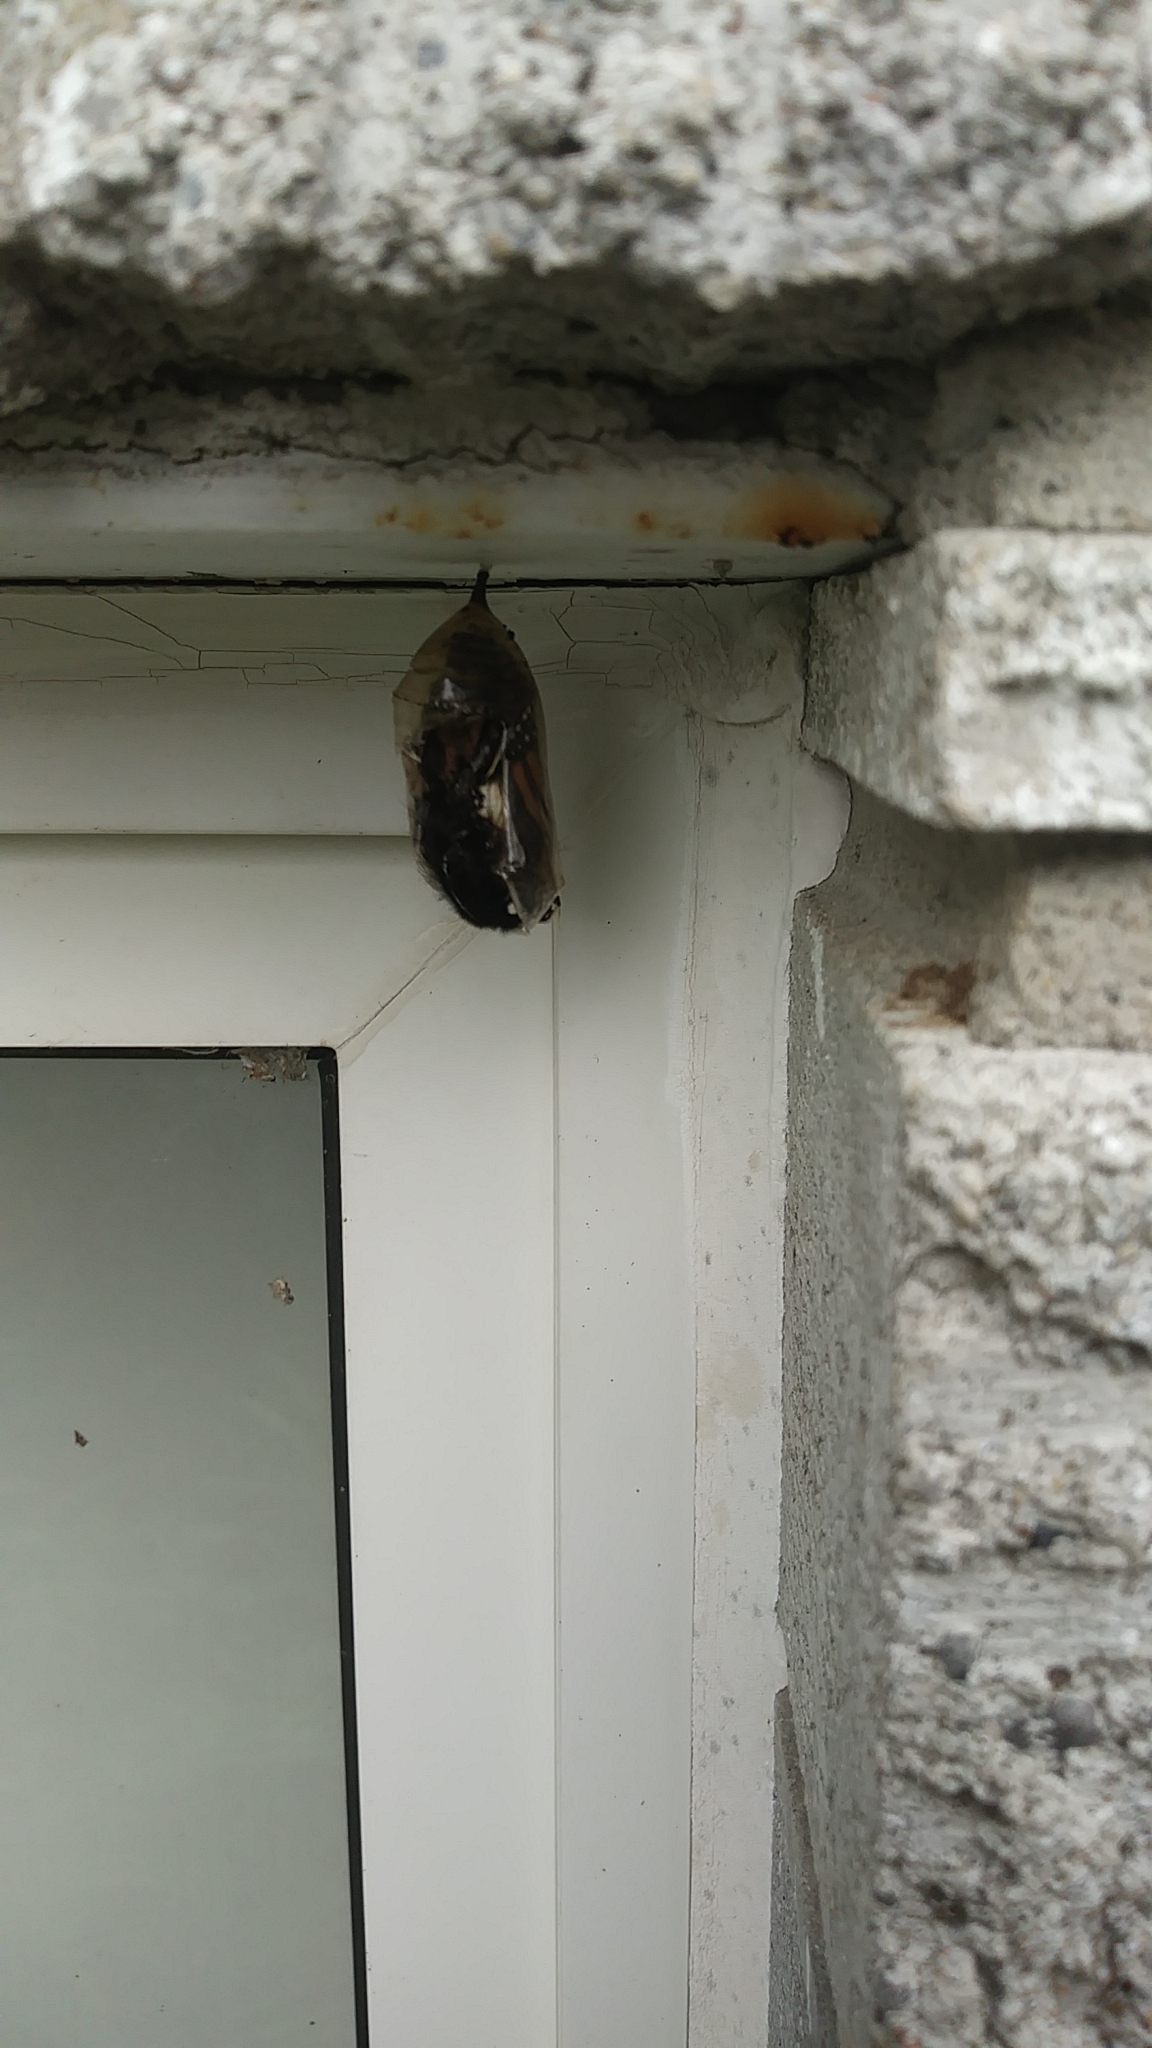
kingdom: Animalia
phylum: Arthropoda
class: Insecta
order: Lepidoptera
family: Nymphalidae
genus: Danaus
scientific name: Danaus plexippus
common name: Monarch
